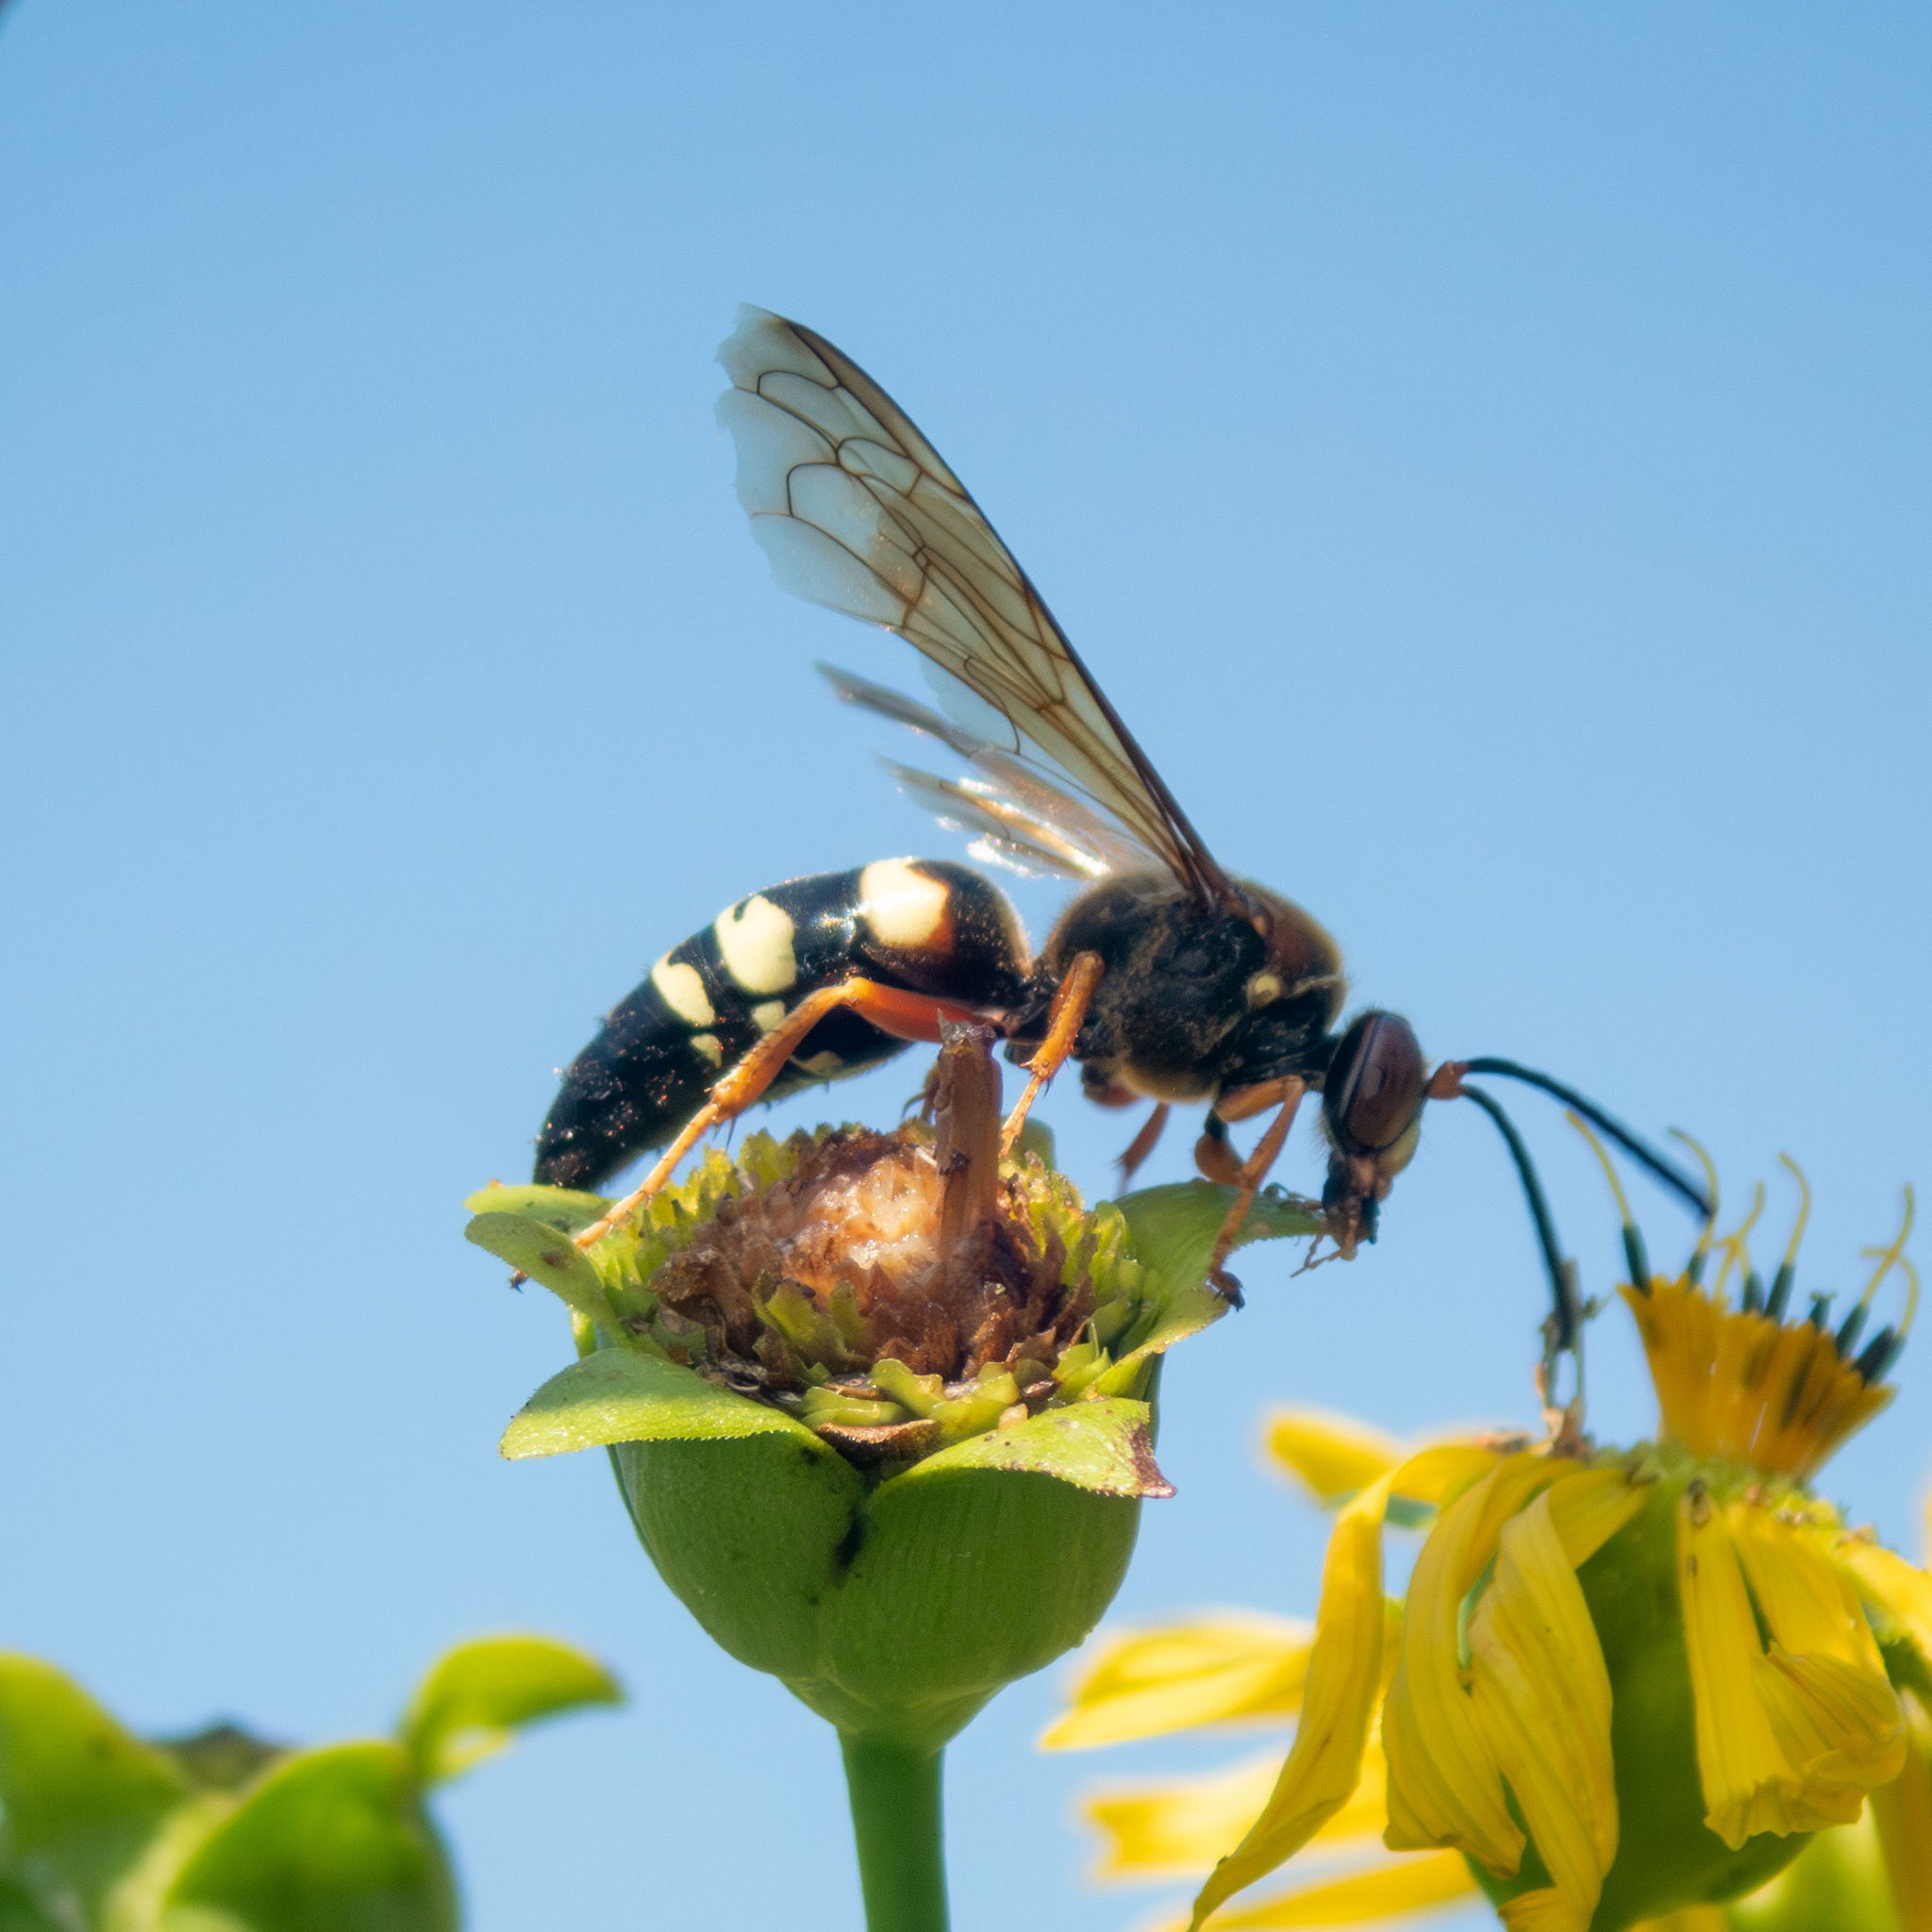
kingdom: Animalia
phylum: Arthropoda
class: Insecta
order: Hymenoptera
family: Crabronidae
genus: Sphecius
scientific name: Sphecius speciosus
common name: Cicada killer
